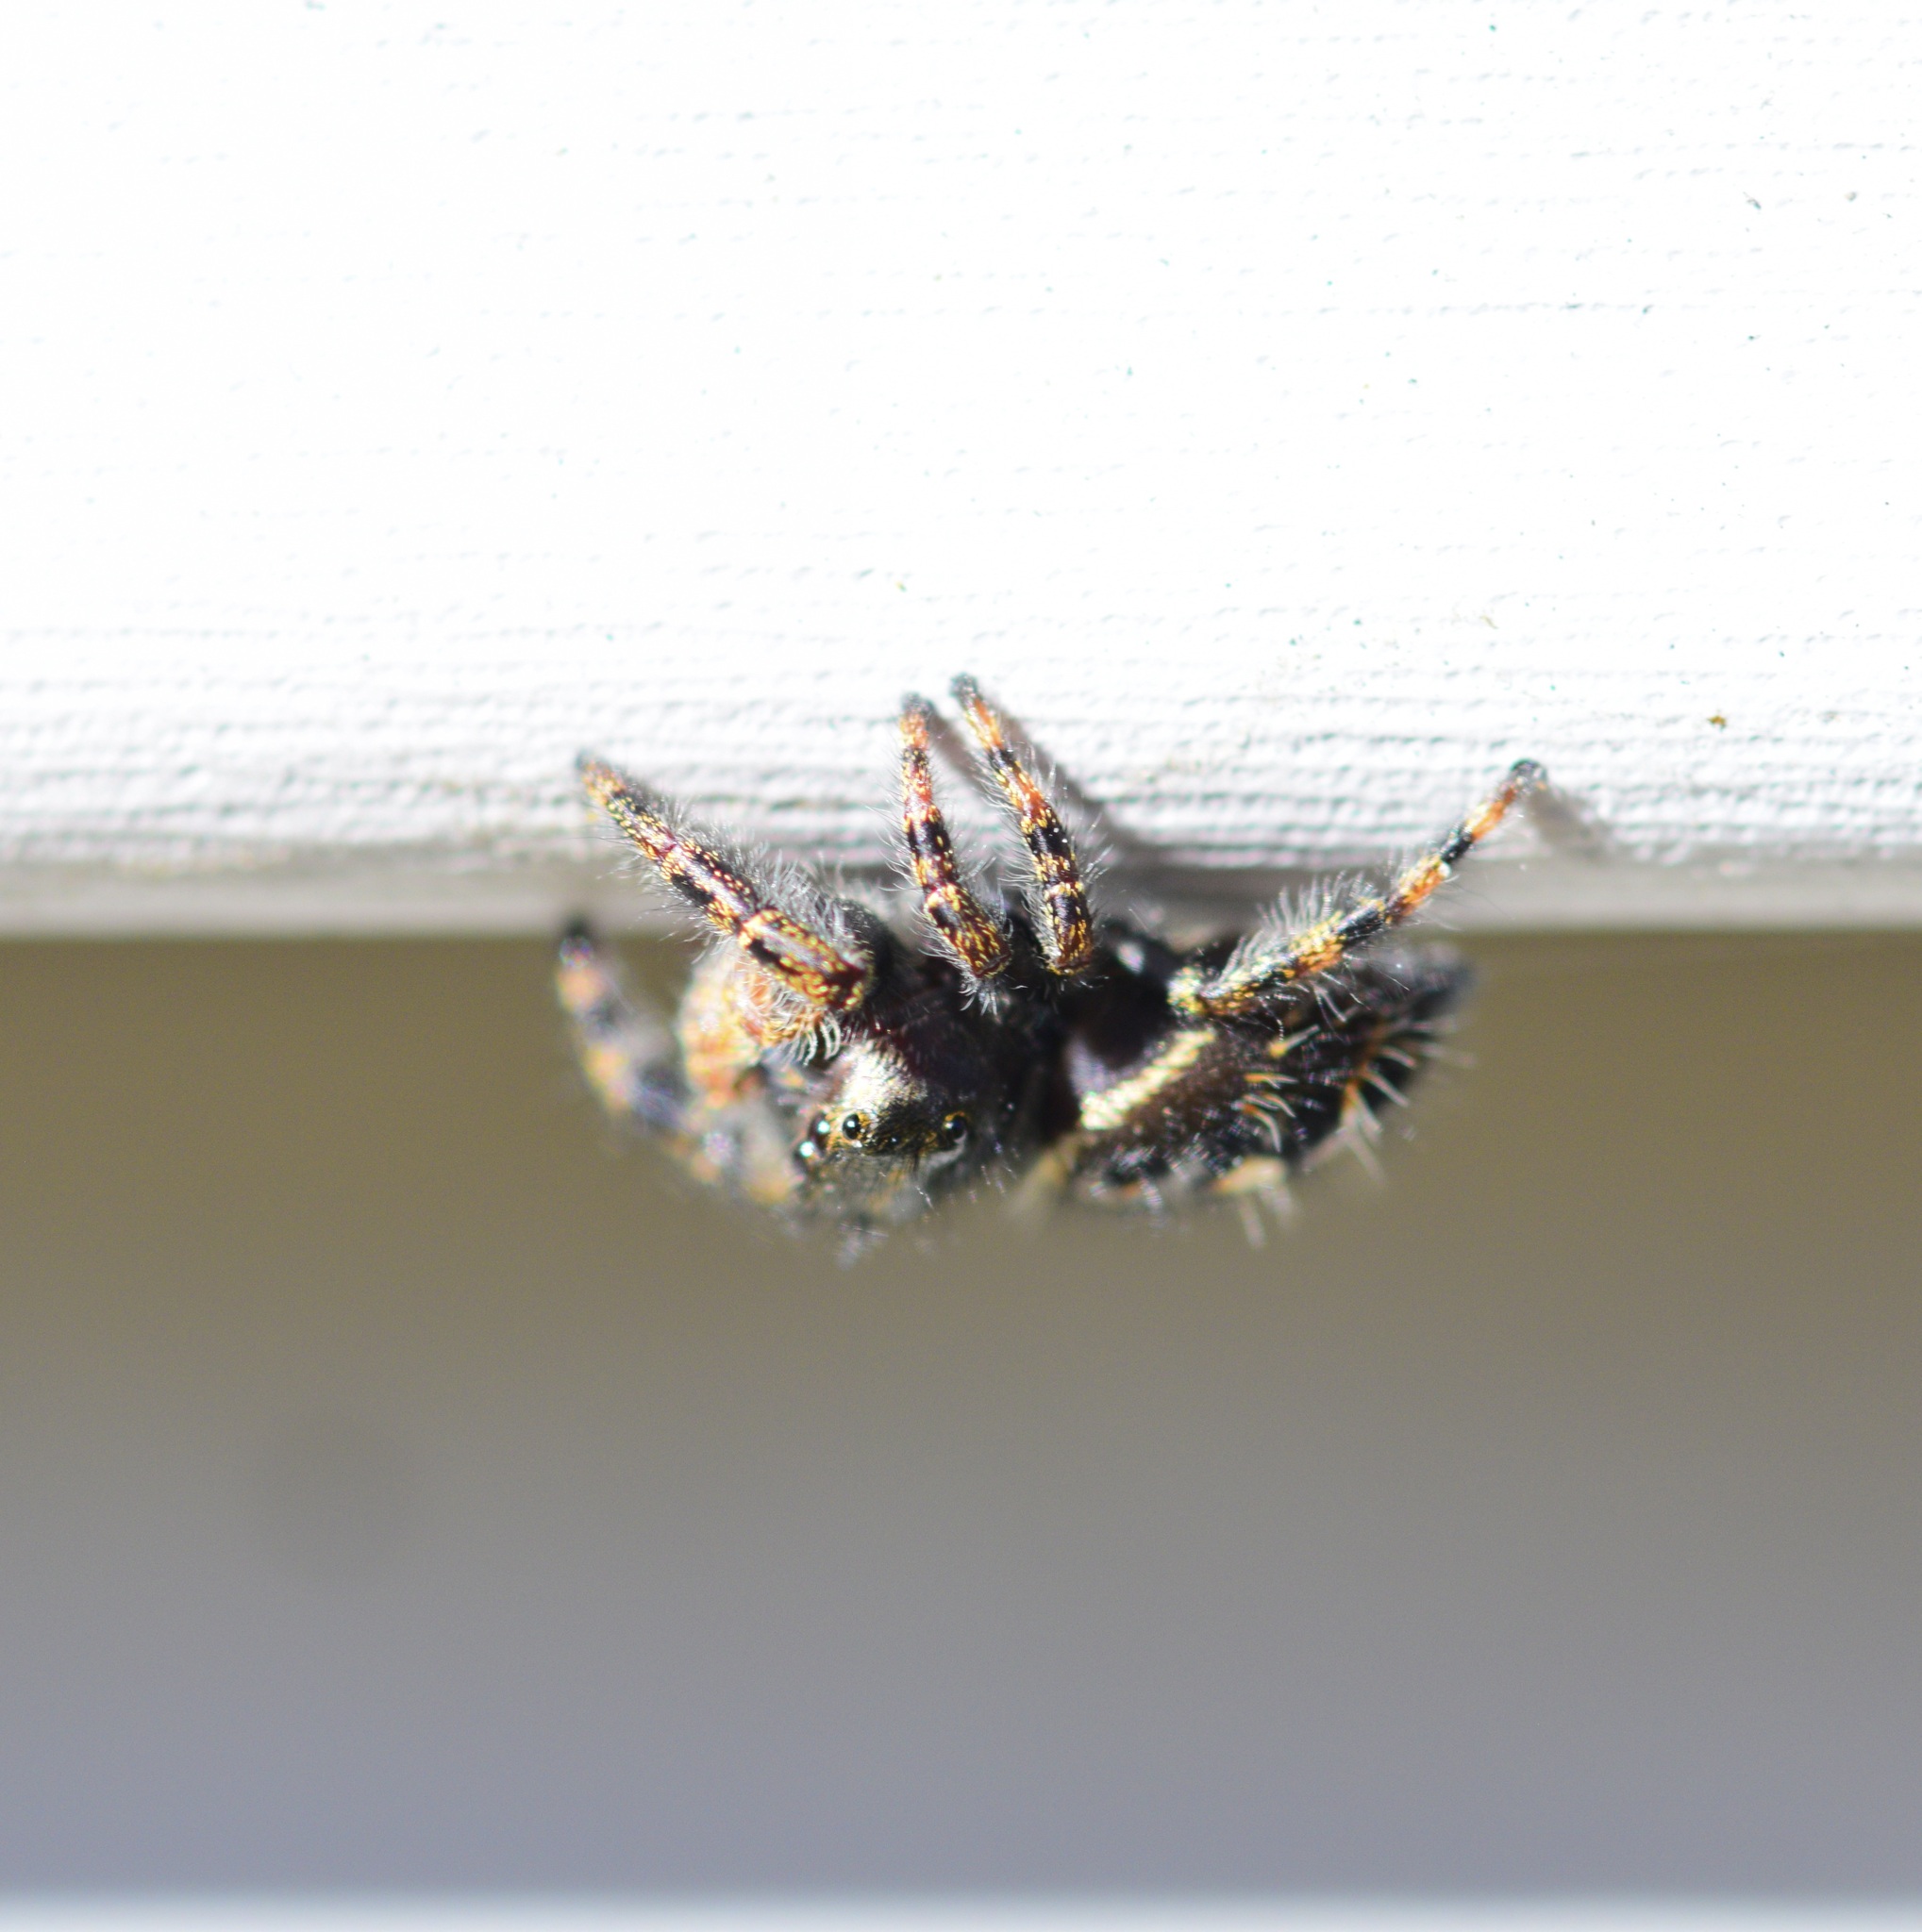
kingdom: Animalia
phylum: Arthropoda
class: Arachnida
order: Araneae
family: Salticidae
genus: Phidippus
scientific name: Phidippus audax
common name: Bold jumper
